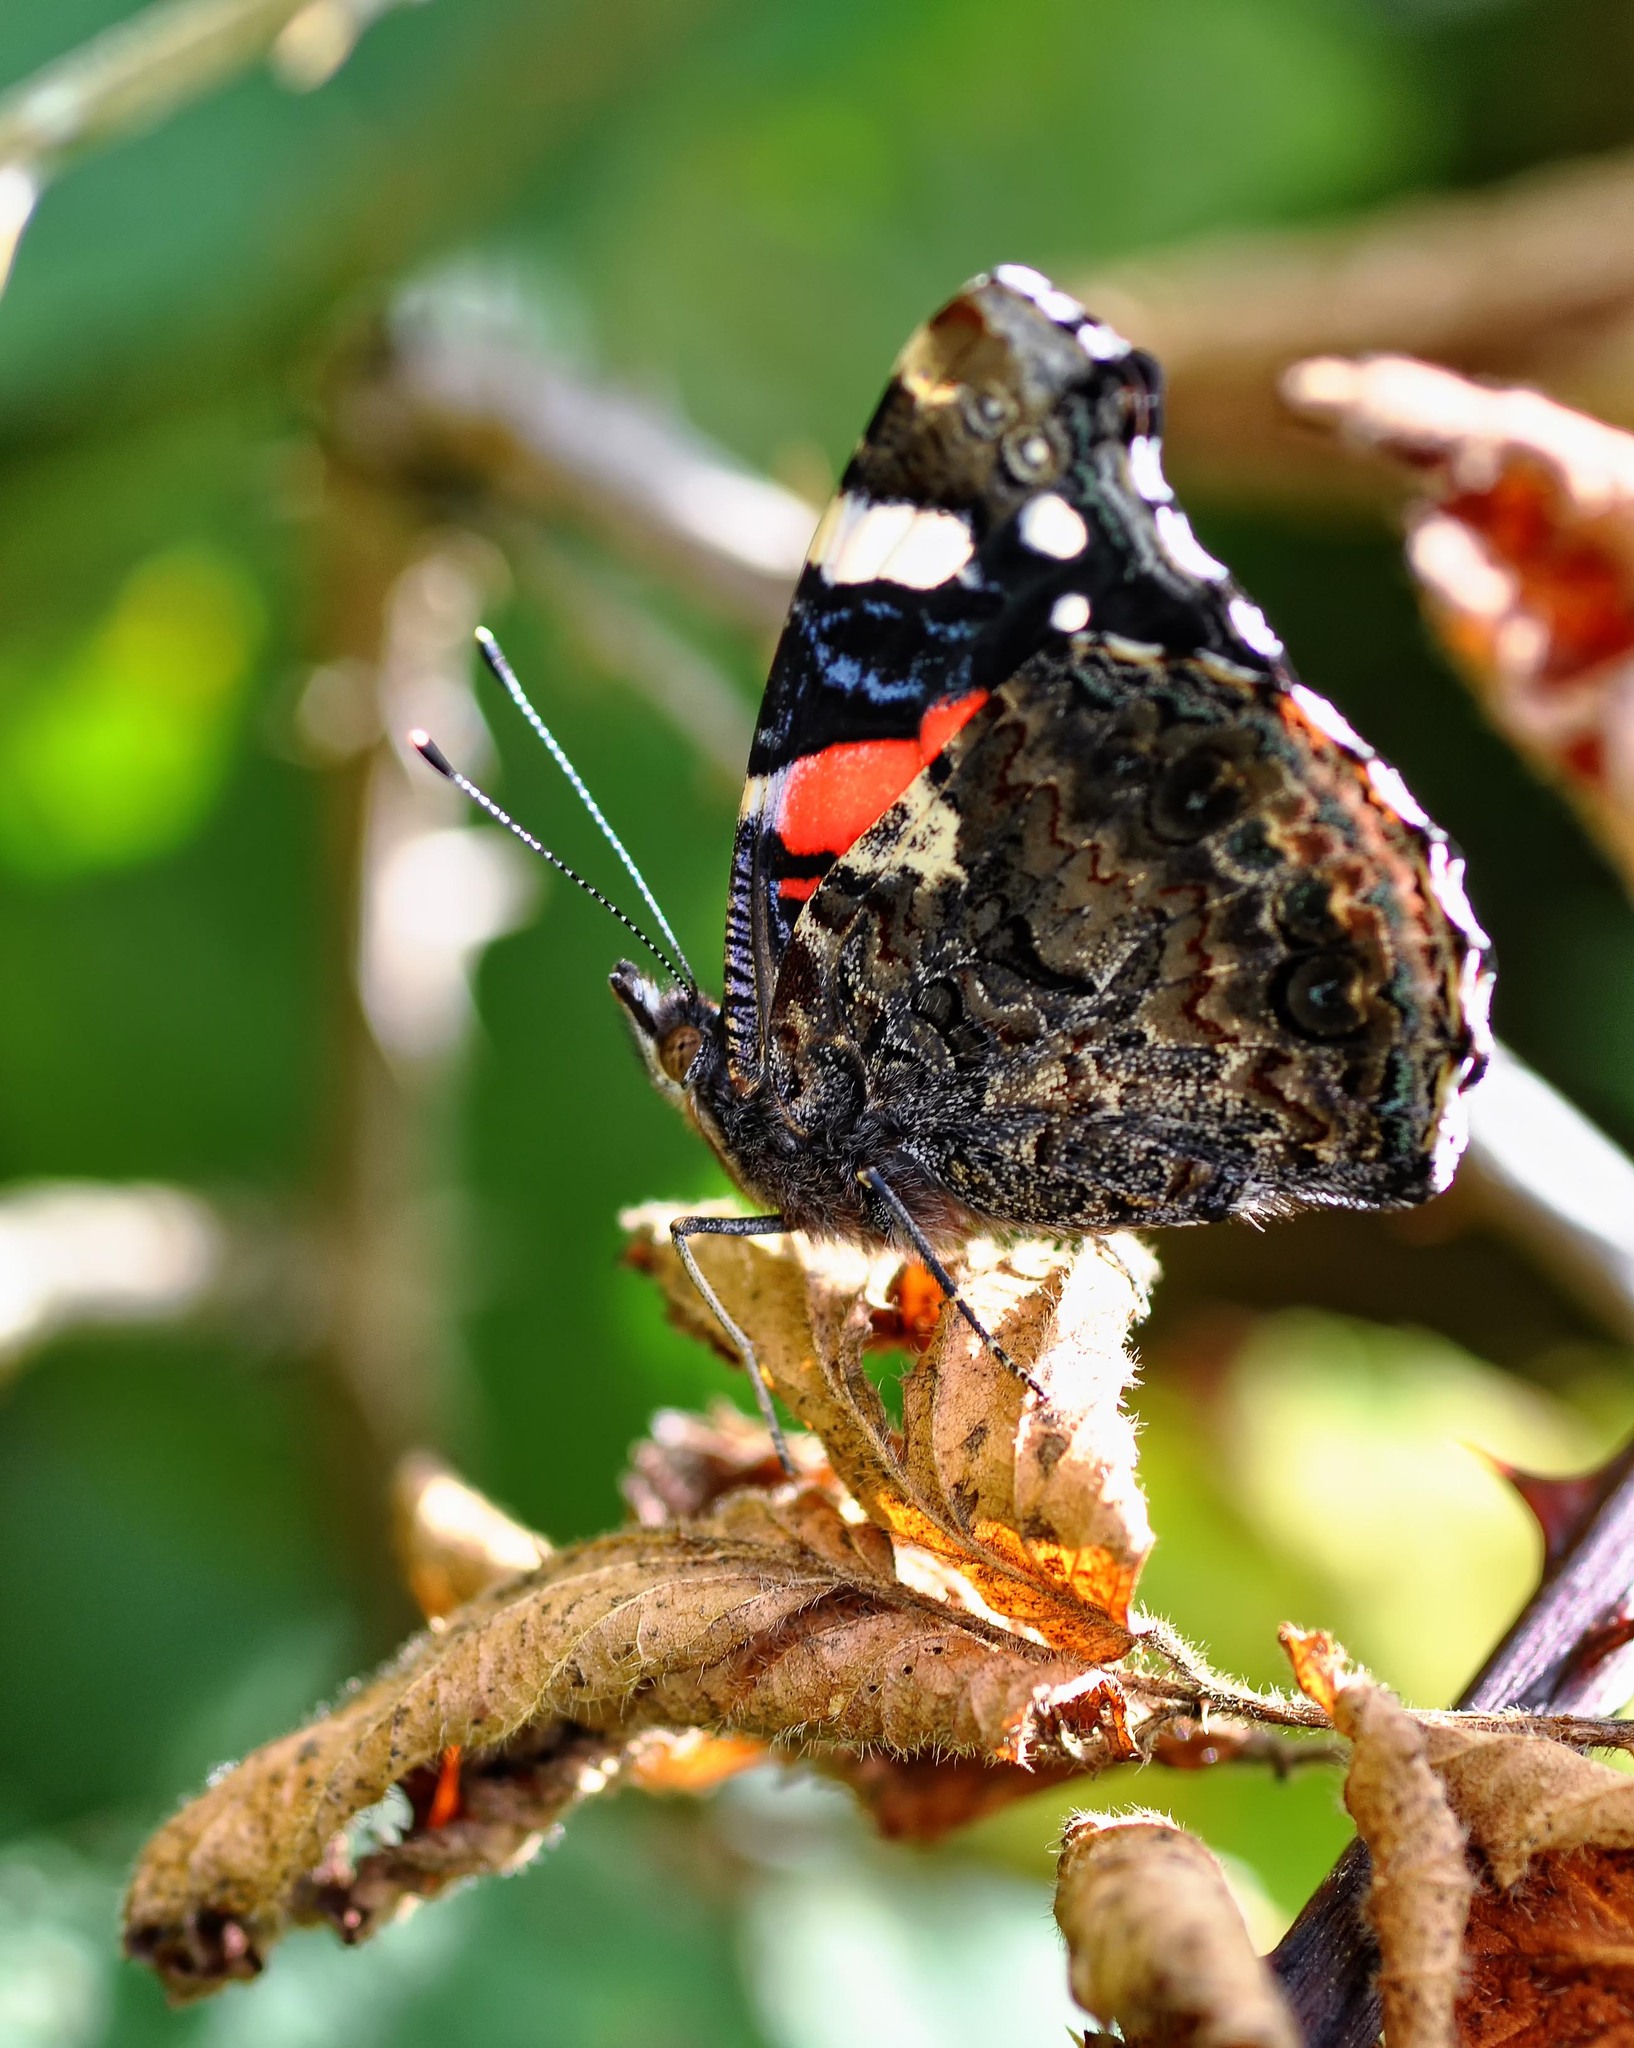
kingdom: Animalia
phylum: Arthropoda
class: Insecta
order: Lepidoptera
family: Nymphalidae
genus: Vanessa
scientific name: Vanessa atalanta
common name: Red admiral
